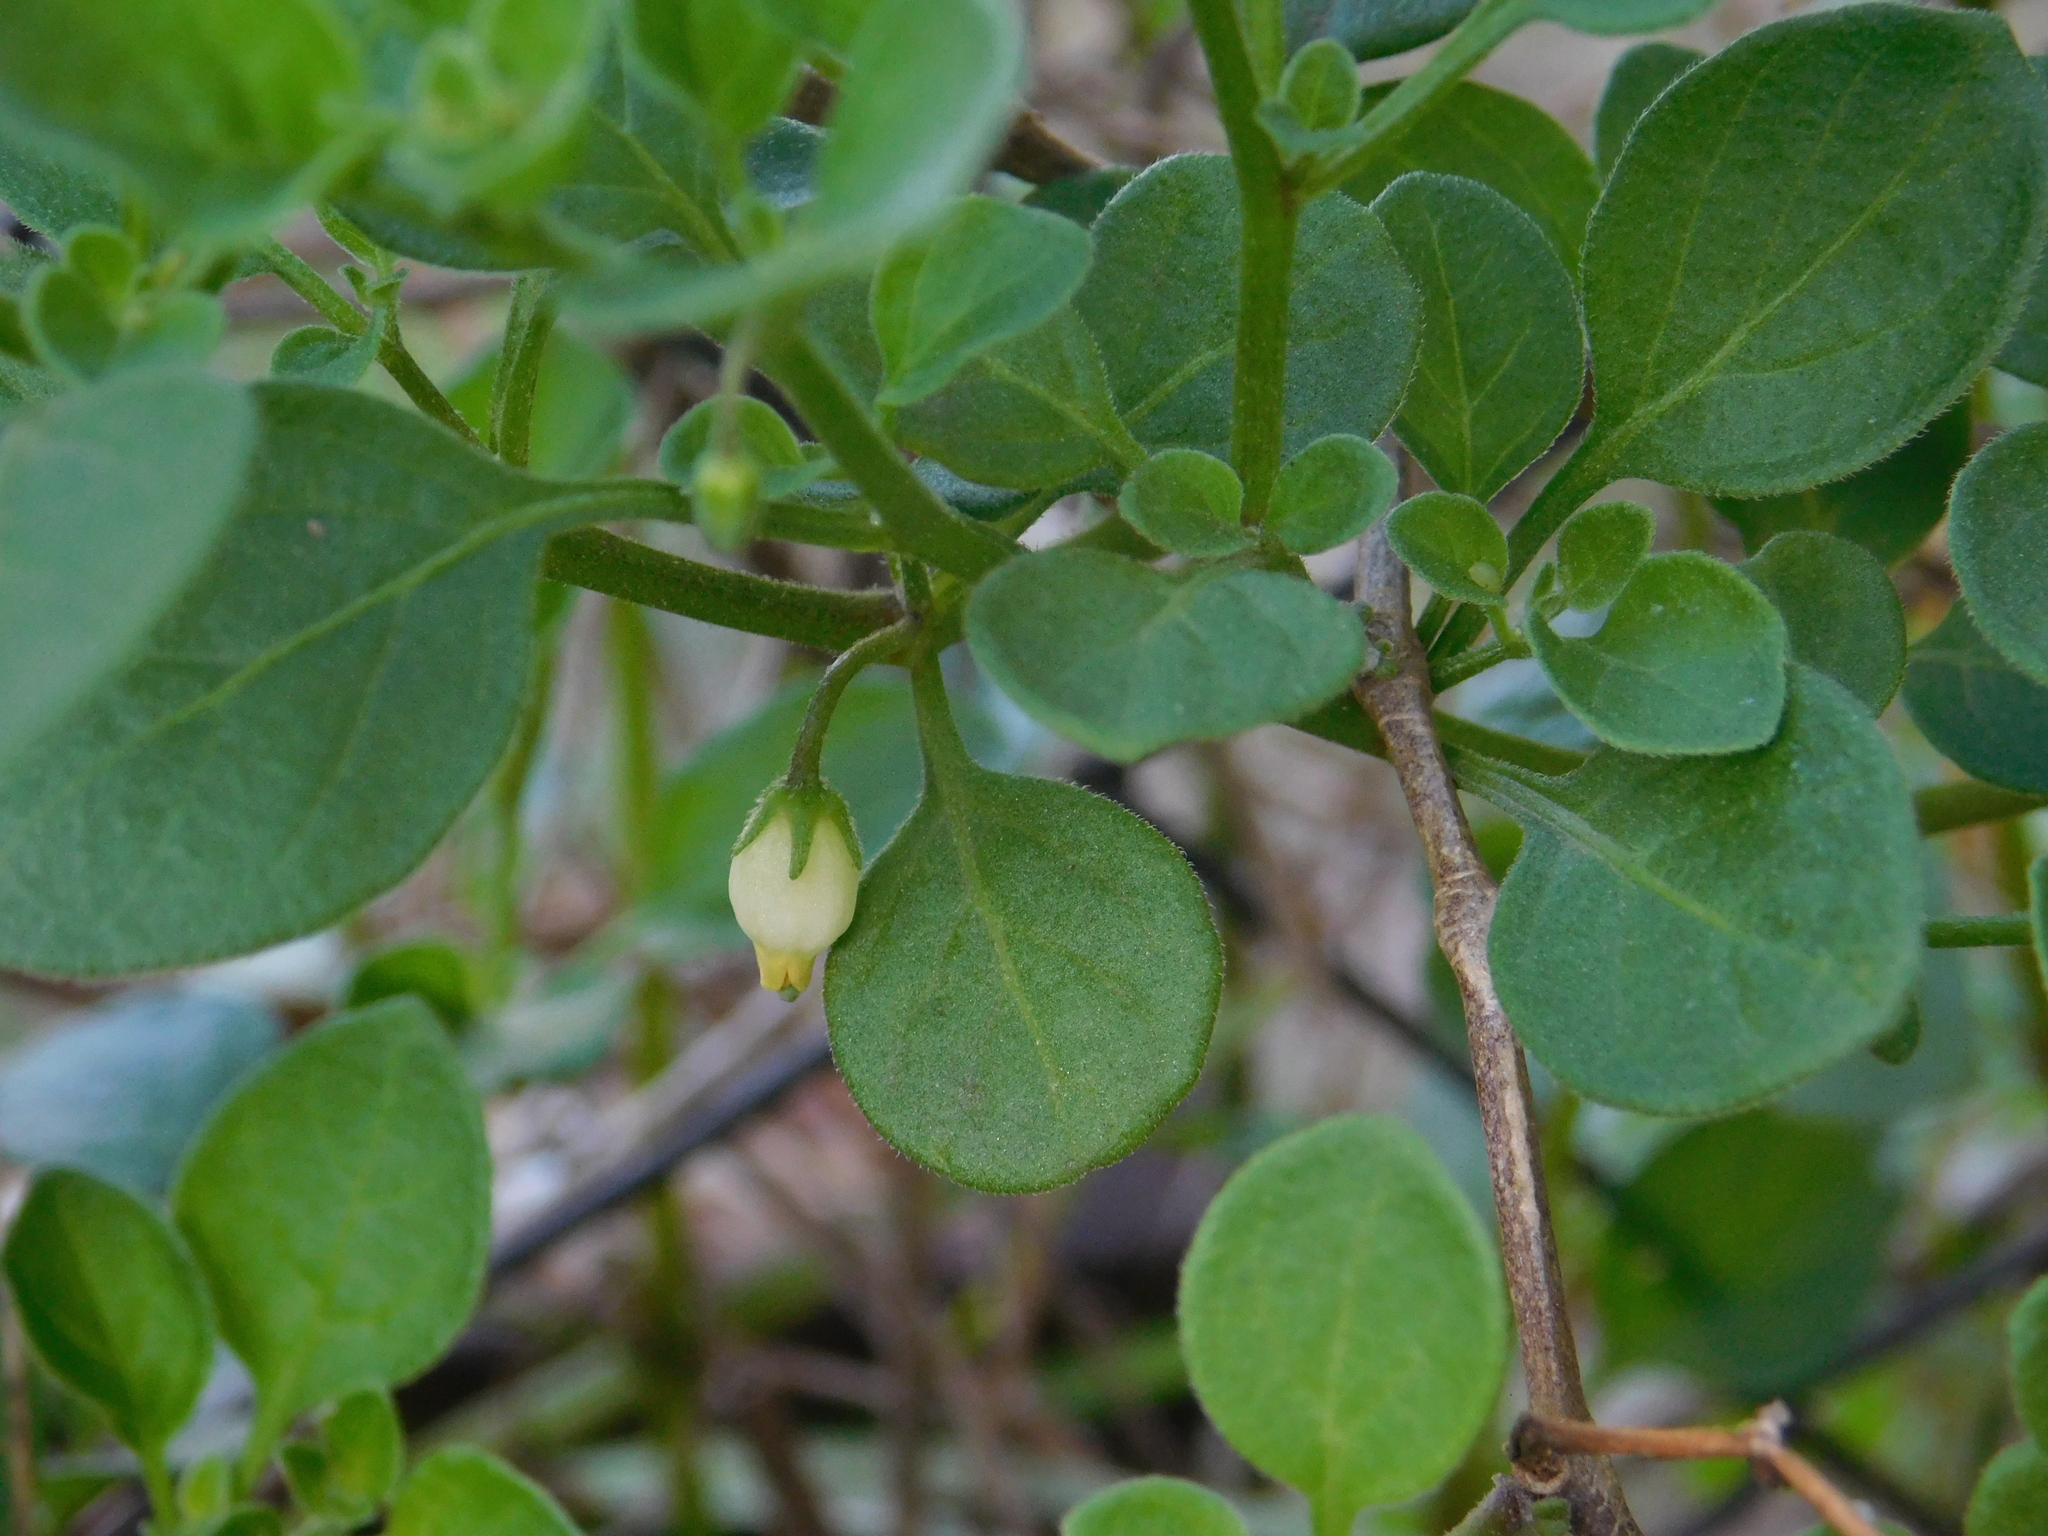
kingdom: Plantae
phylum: Tracheophyta
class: Magnoliopsida
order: Solanales
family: Solanaceae
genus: Salpichroa
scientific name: Salpichroa origanifolia
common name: Lily-of-the-valley-vine
